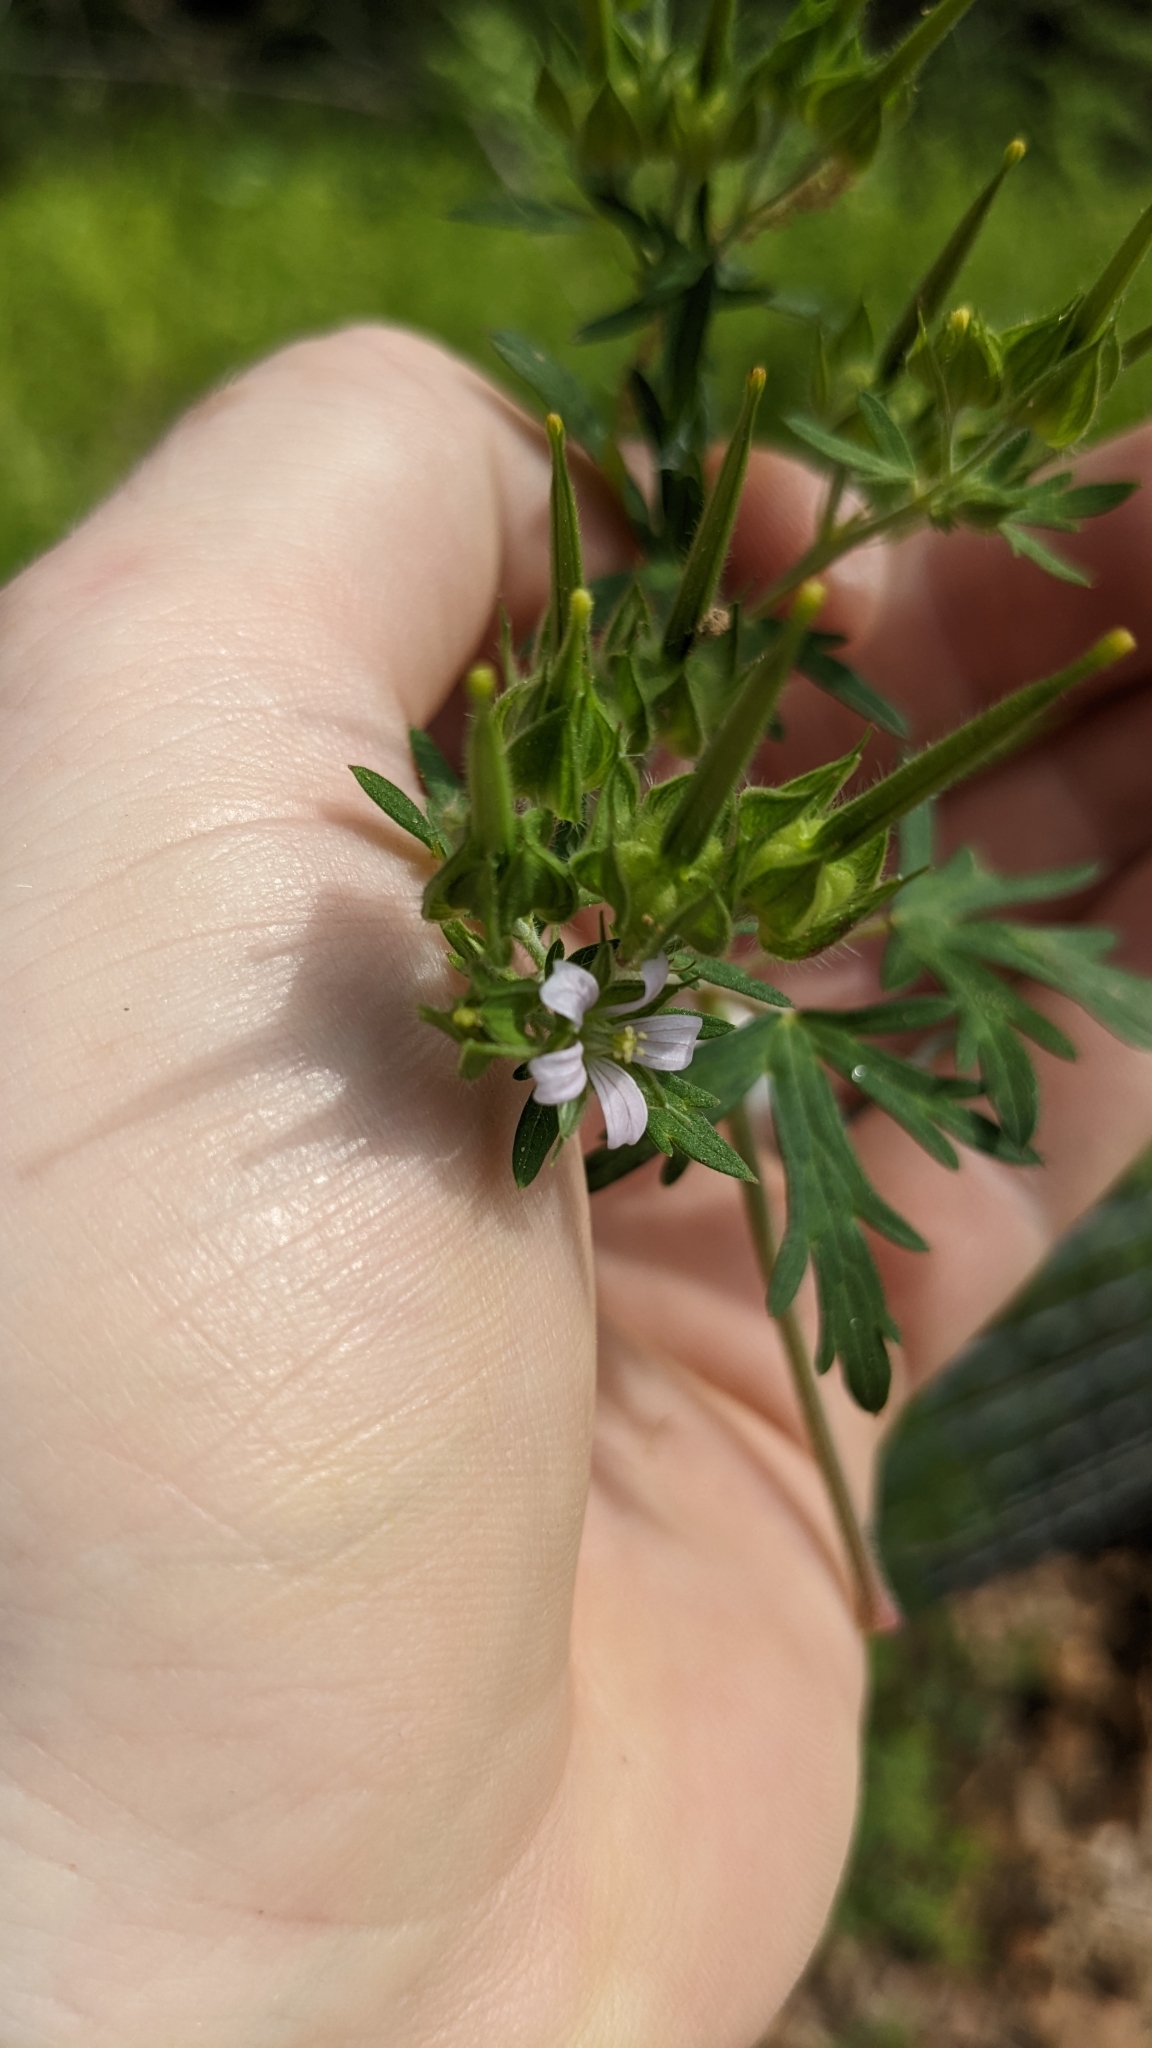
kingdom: Plantae
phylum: Tracheophyta
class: Magnoliopsida
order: Geraniales
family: Geraniaceae
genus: Geranium
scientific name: Geranium carolinianum
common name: Carolina crane's-bill
